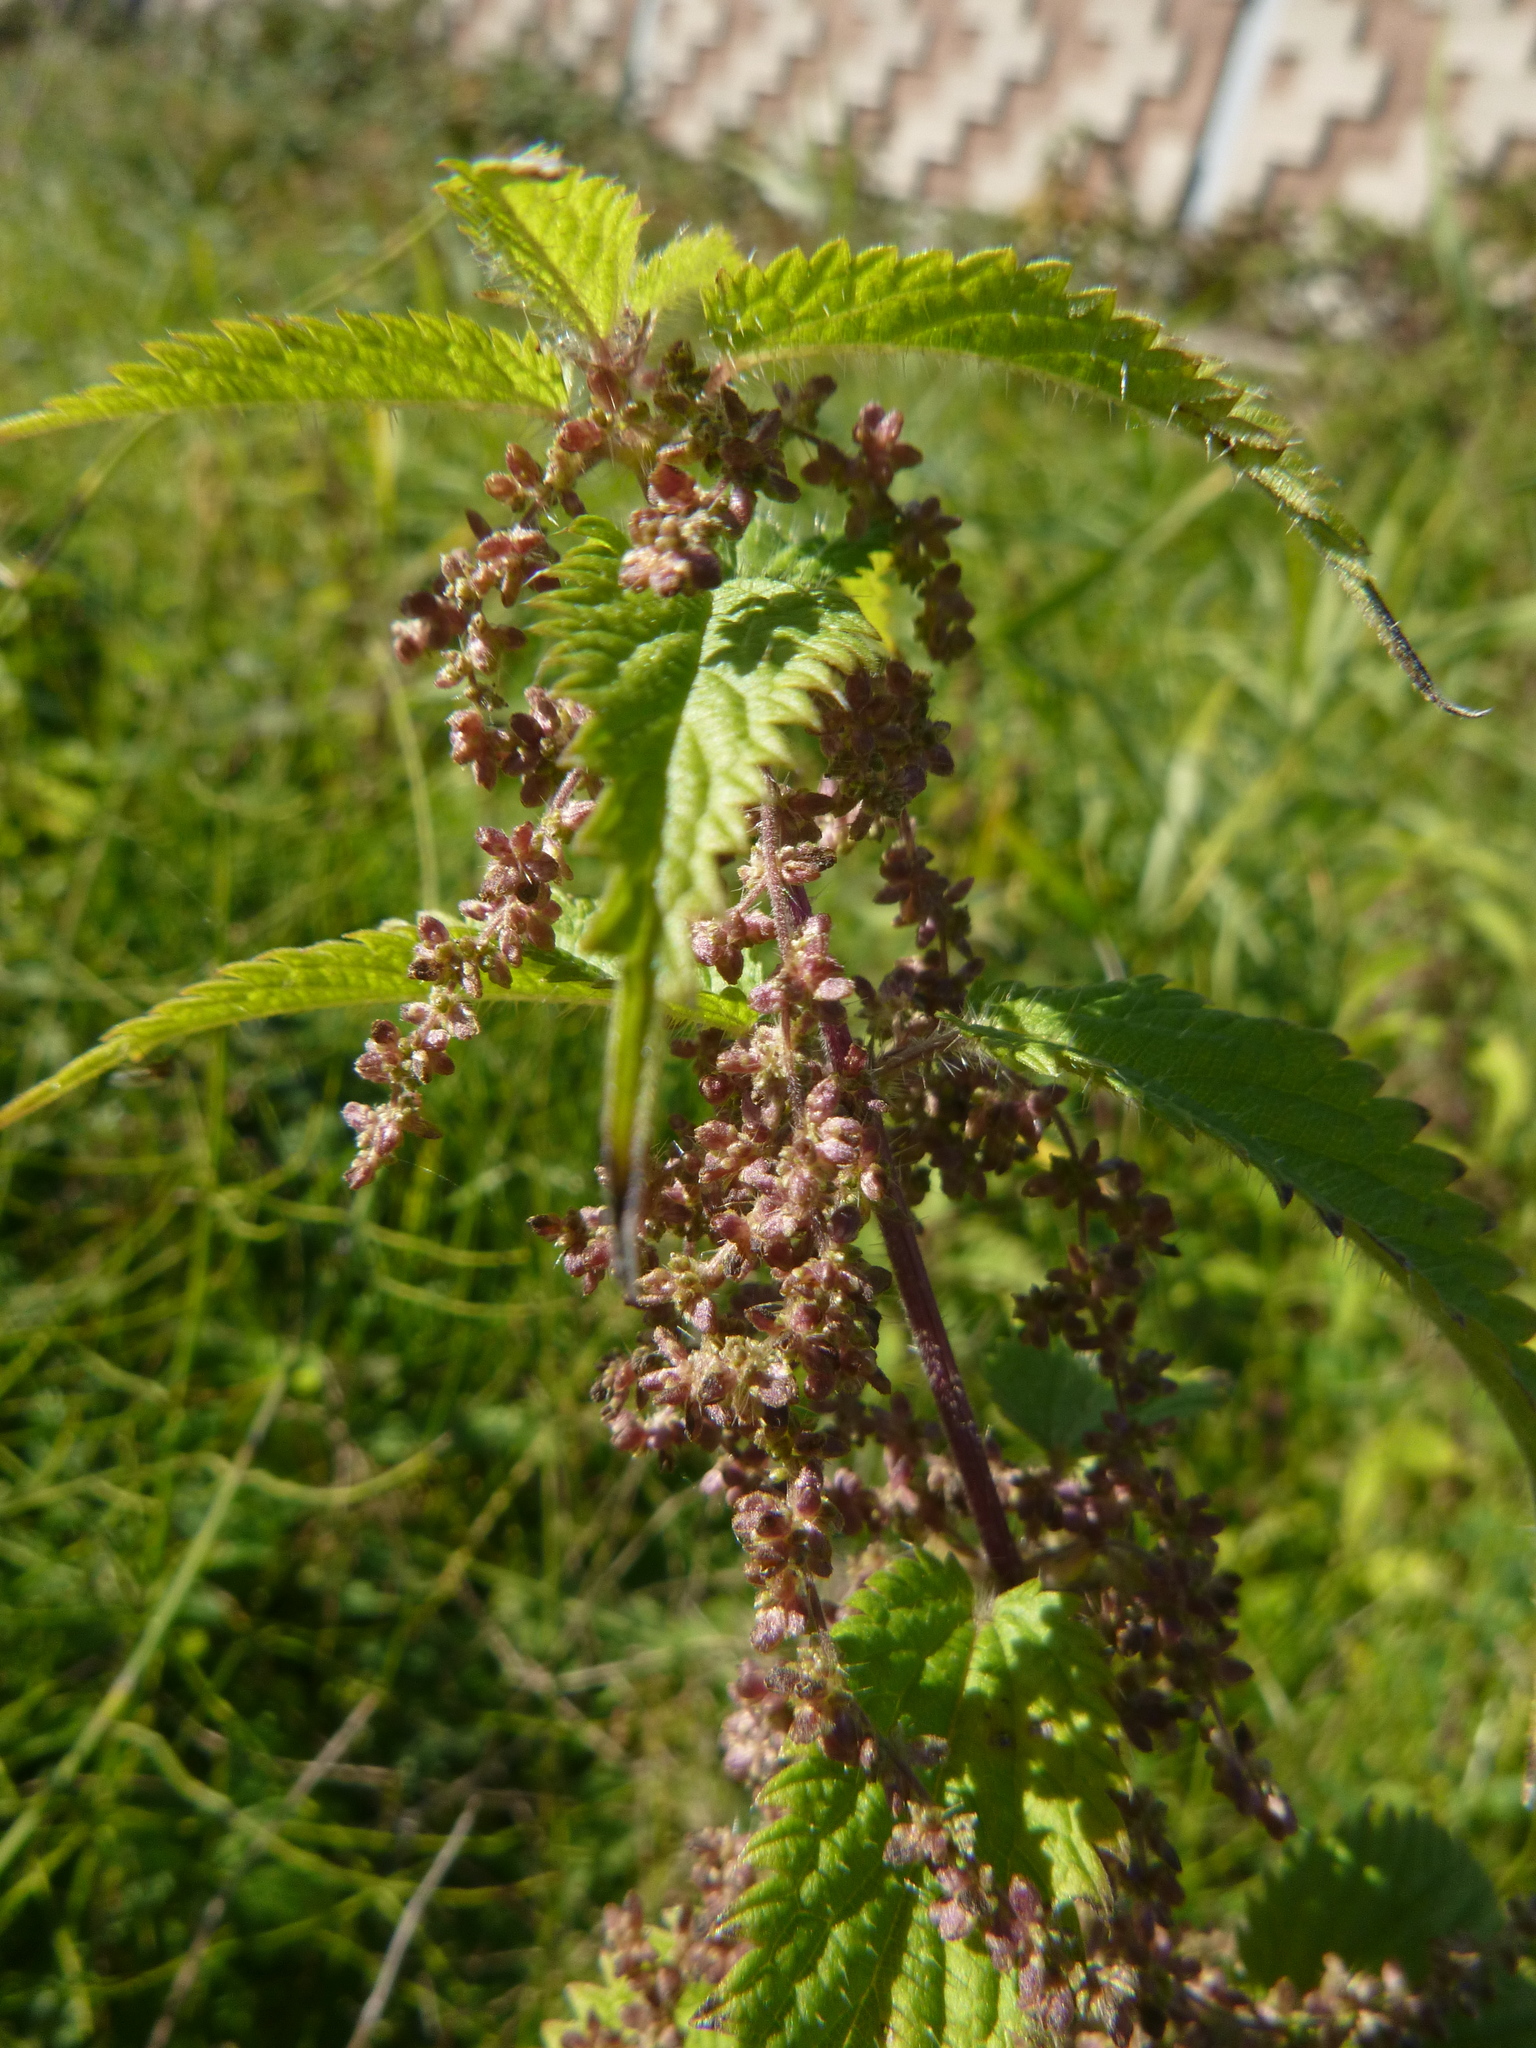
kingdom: Plantae
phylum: Tracheophyta
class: Magnoliopsida
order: Rosales
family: Urticaceae
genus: Urtica
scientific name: Urtica dioica
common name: Common nettle
